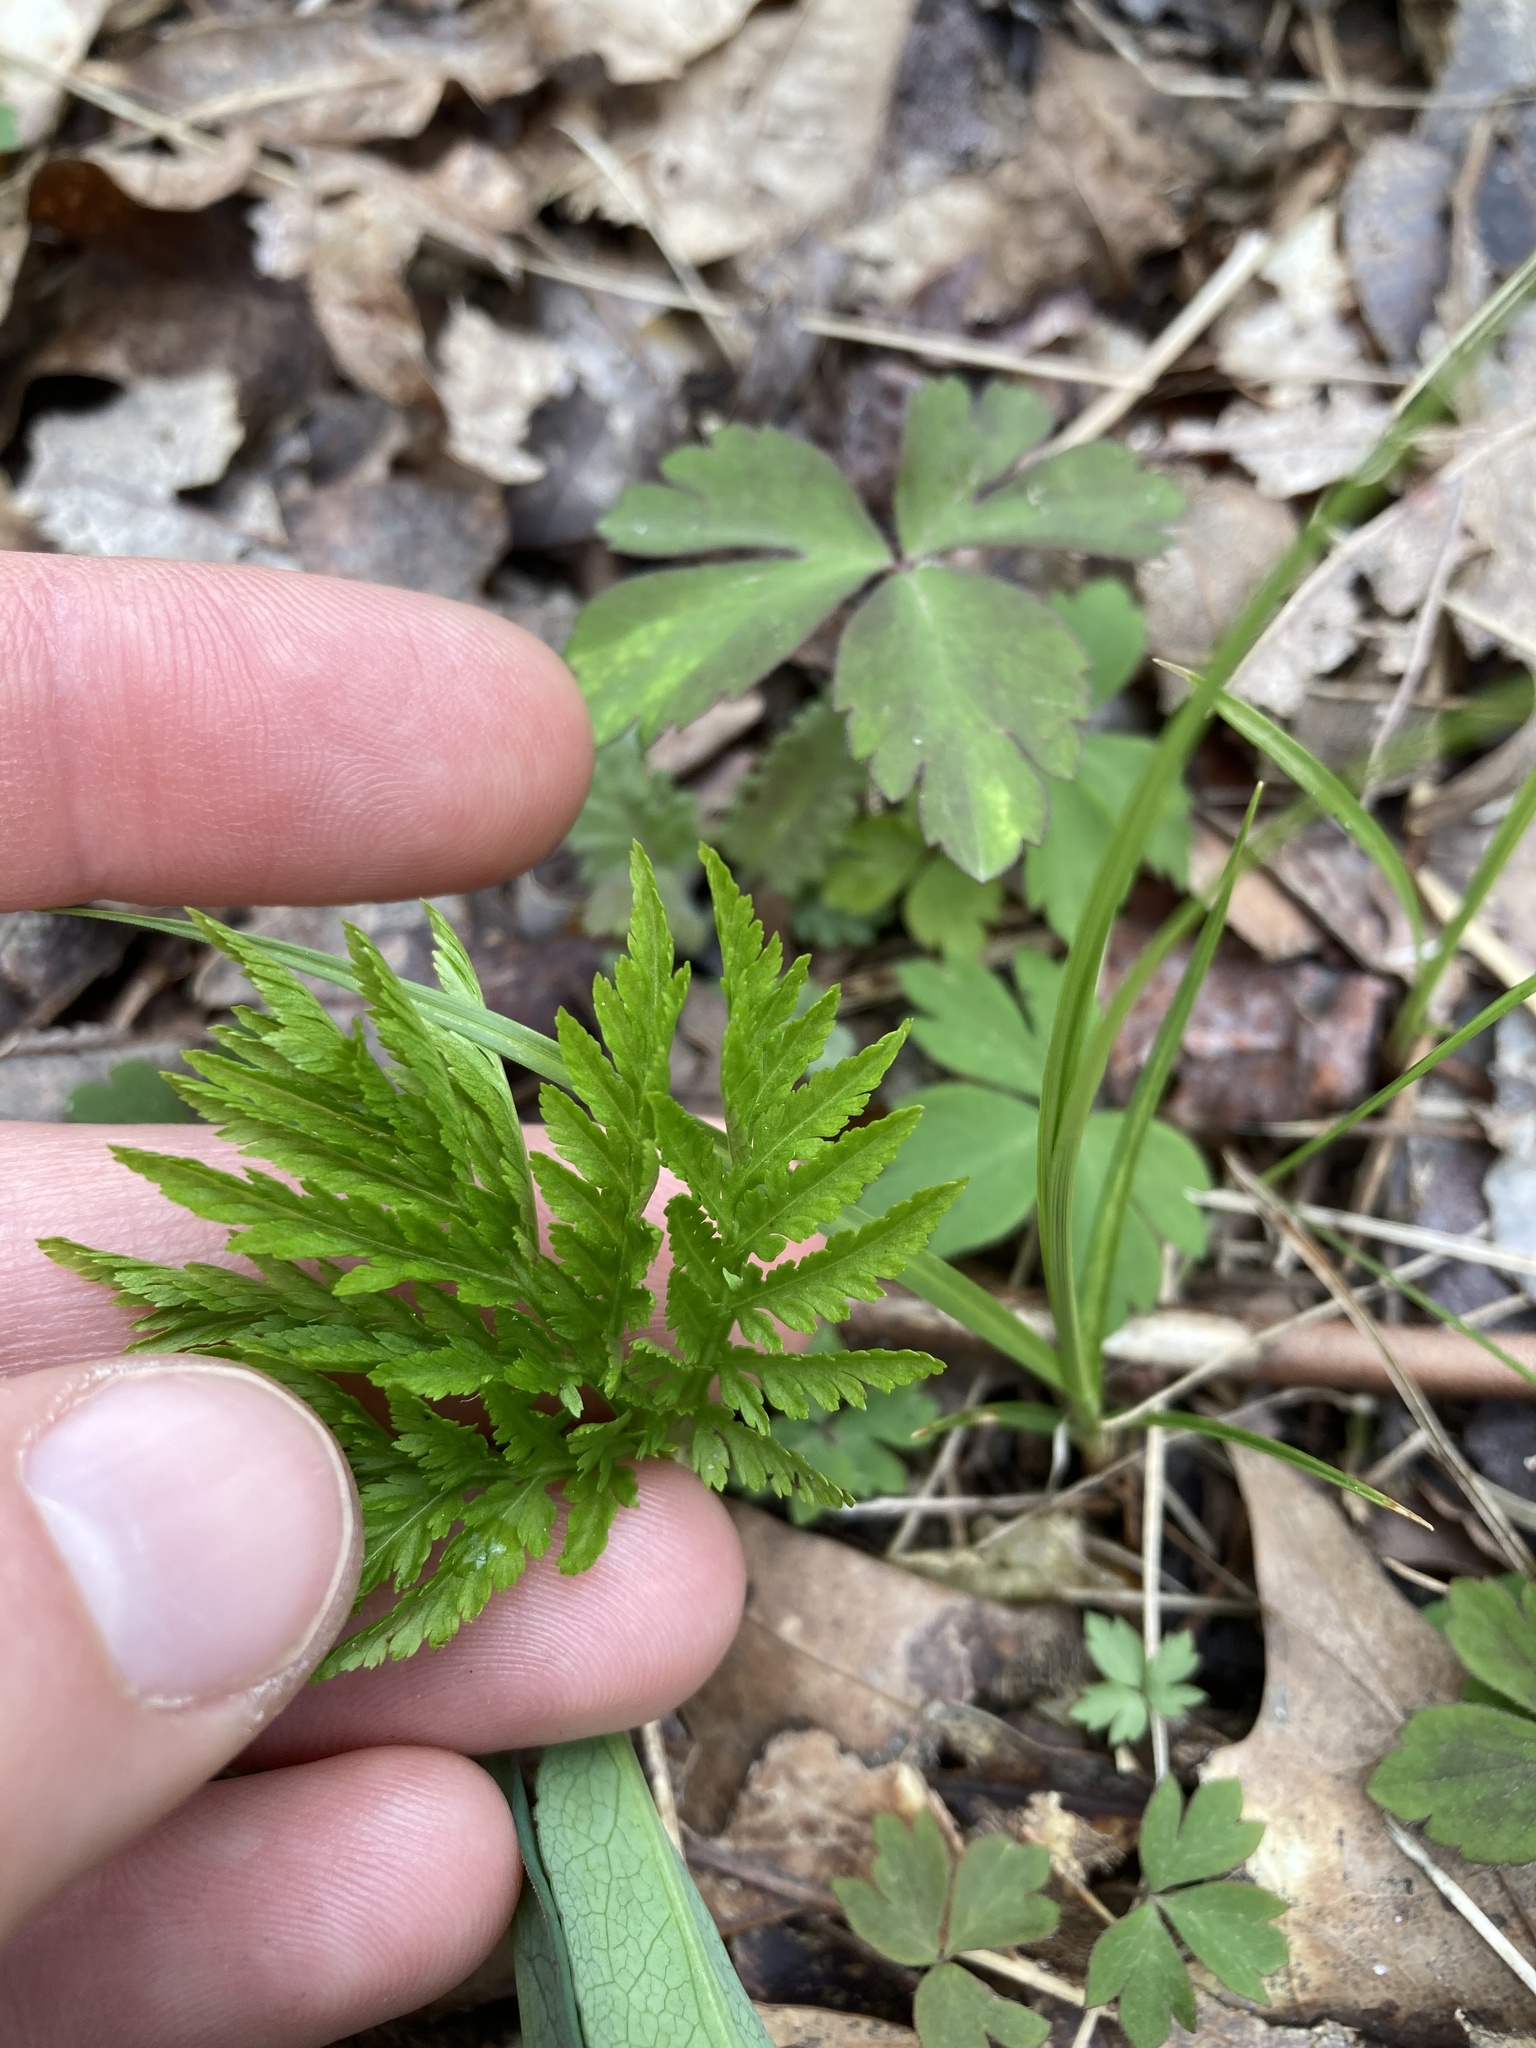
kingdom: Plantae
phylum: Tracheophyta
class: Polypodiopsida
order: Ophioglossales
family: Ophioglossaceae
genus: Botrypus
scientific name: Botrypus virginianus
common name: Common grapefern
